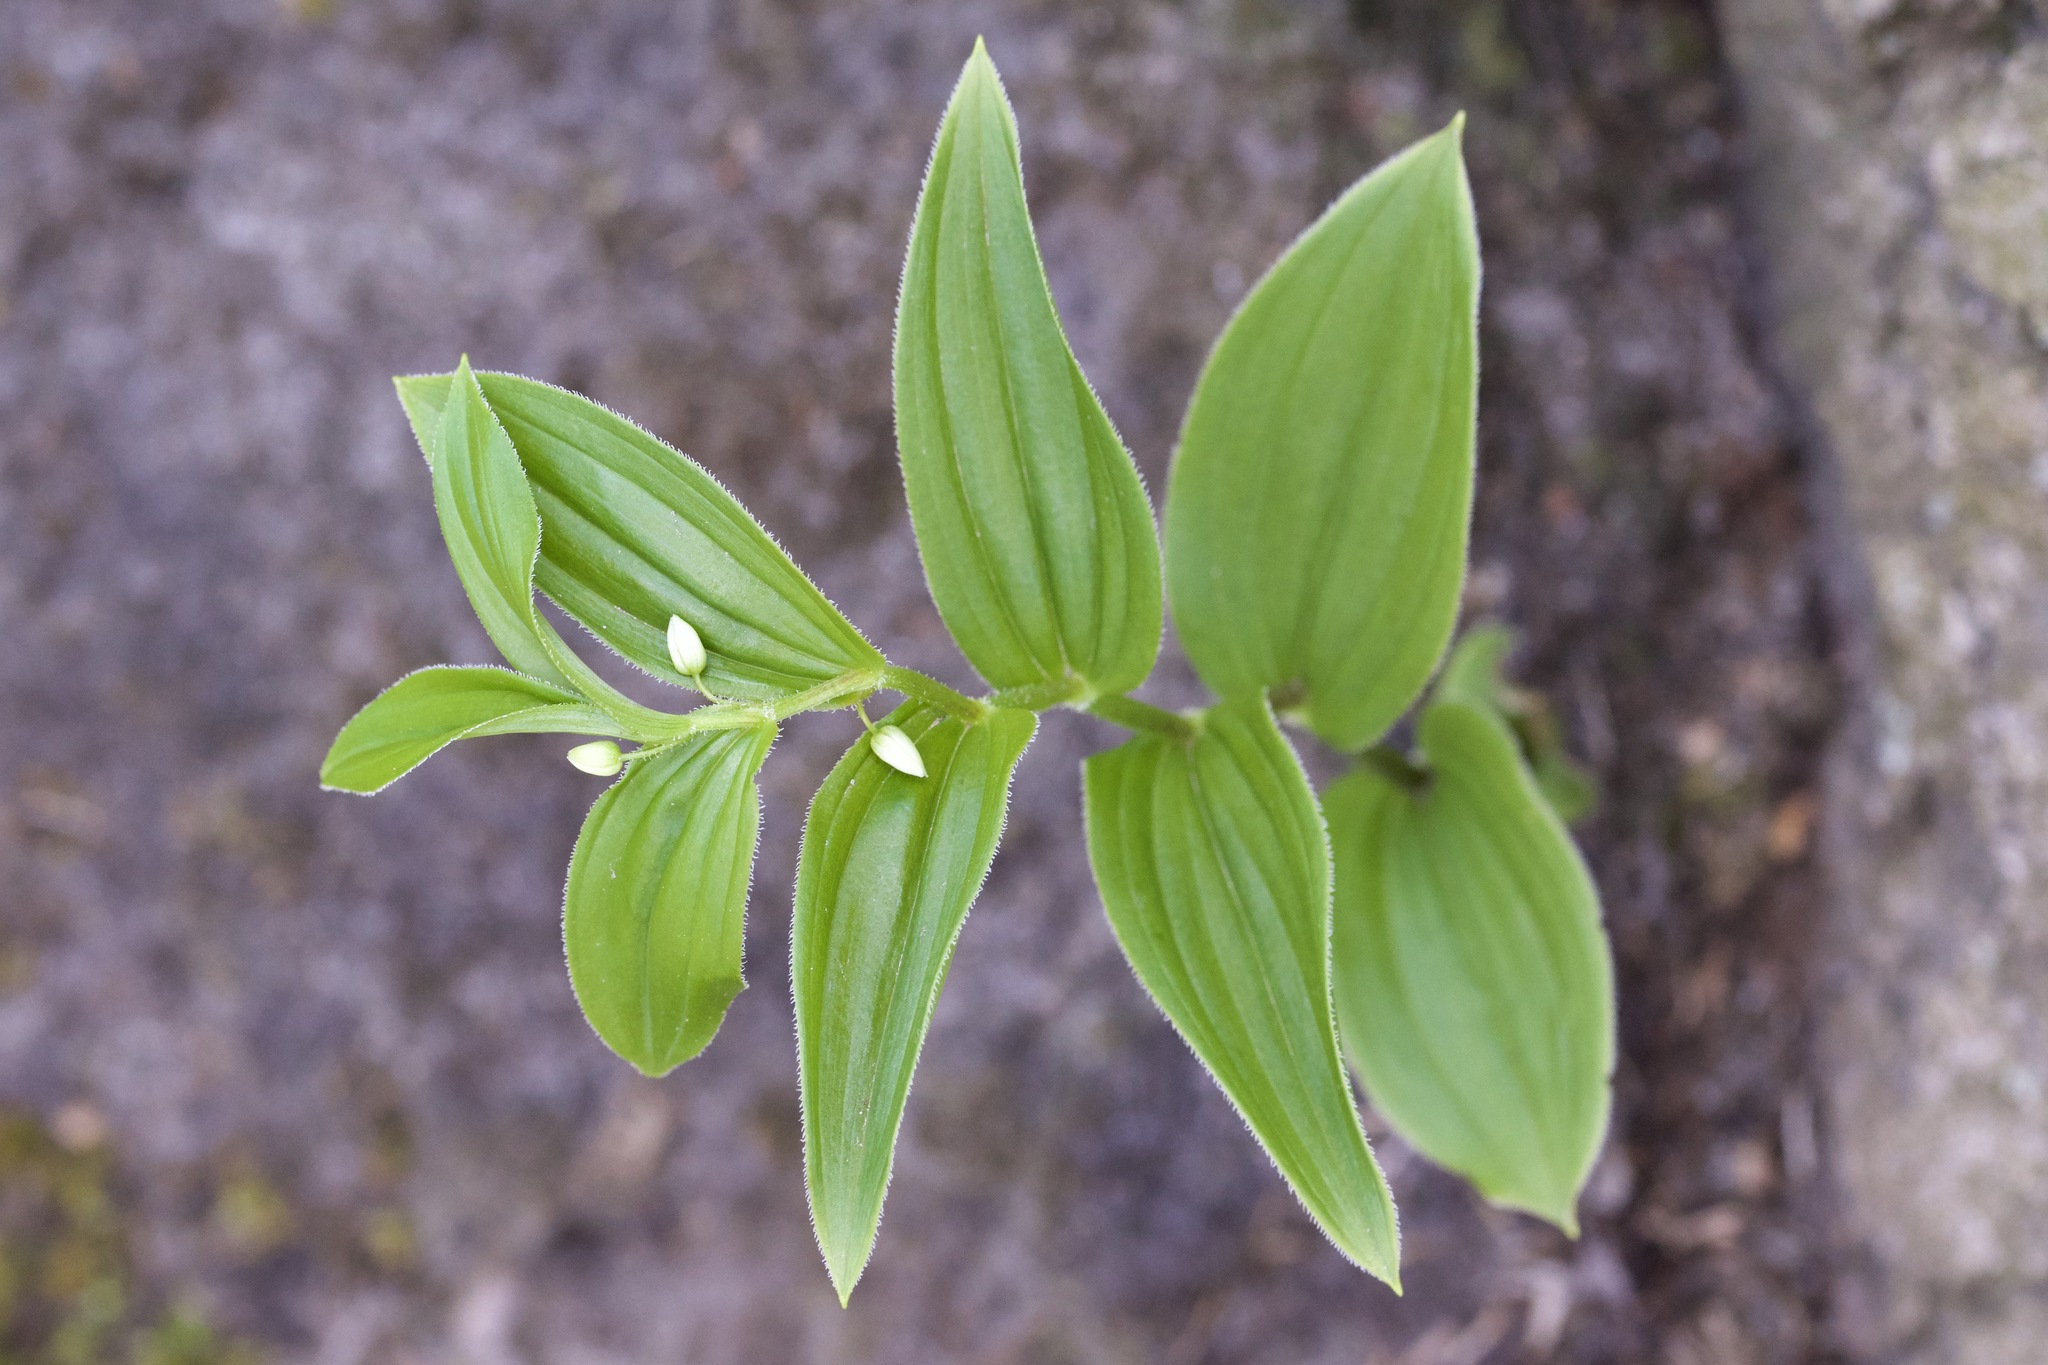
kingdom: Plantae
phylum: Tracheophyta
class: Liliopsida
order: Liliales
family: Liliaceae
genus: Streptopus
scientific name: Streptopus lanceolatus
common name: Rose mandarin
